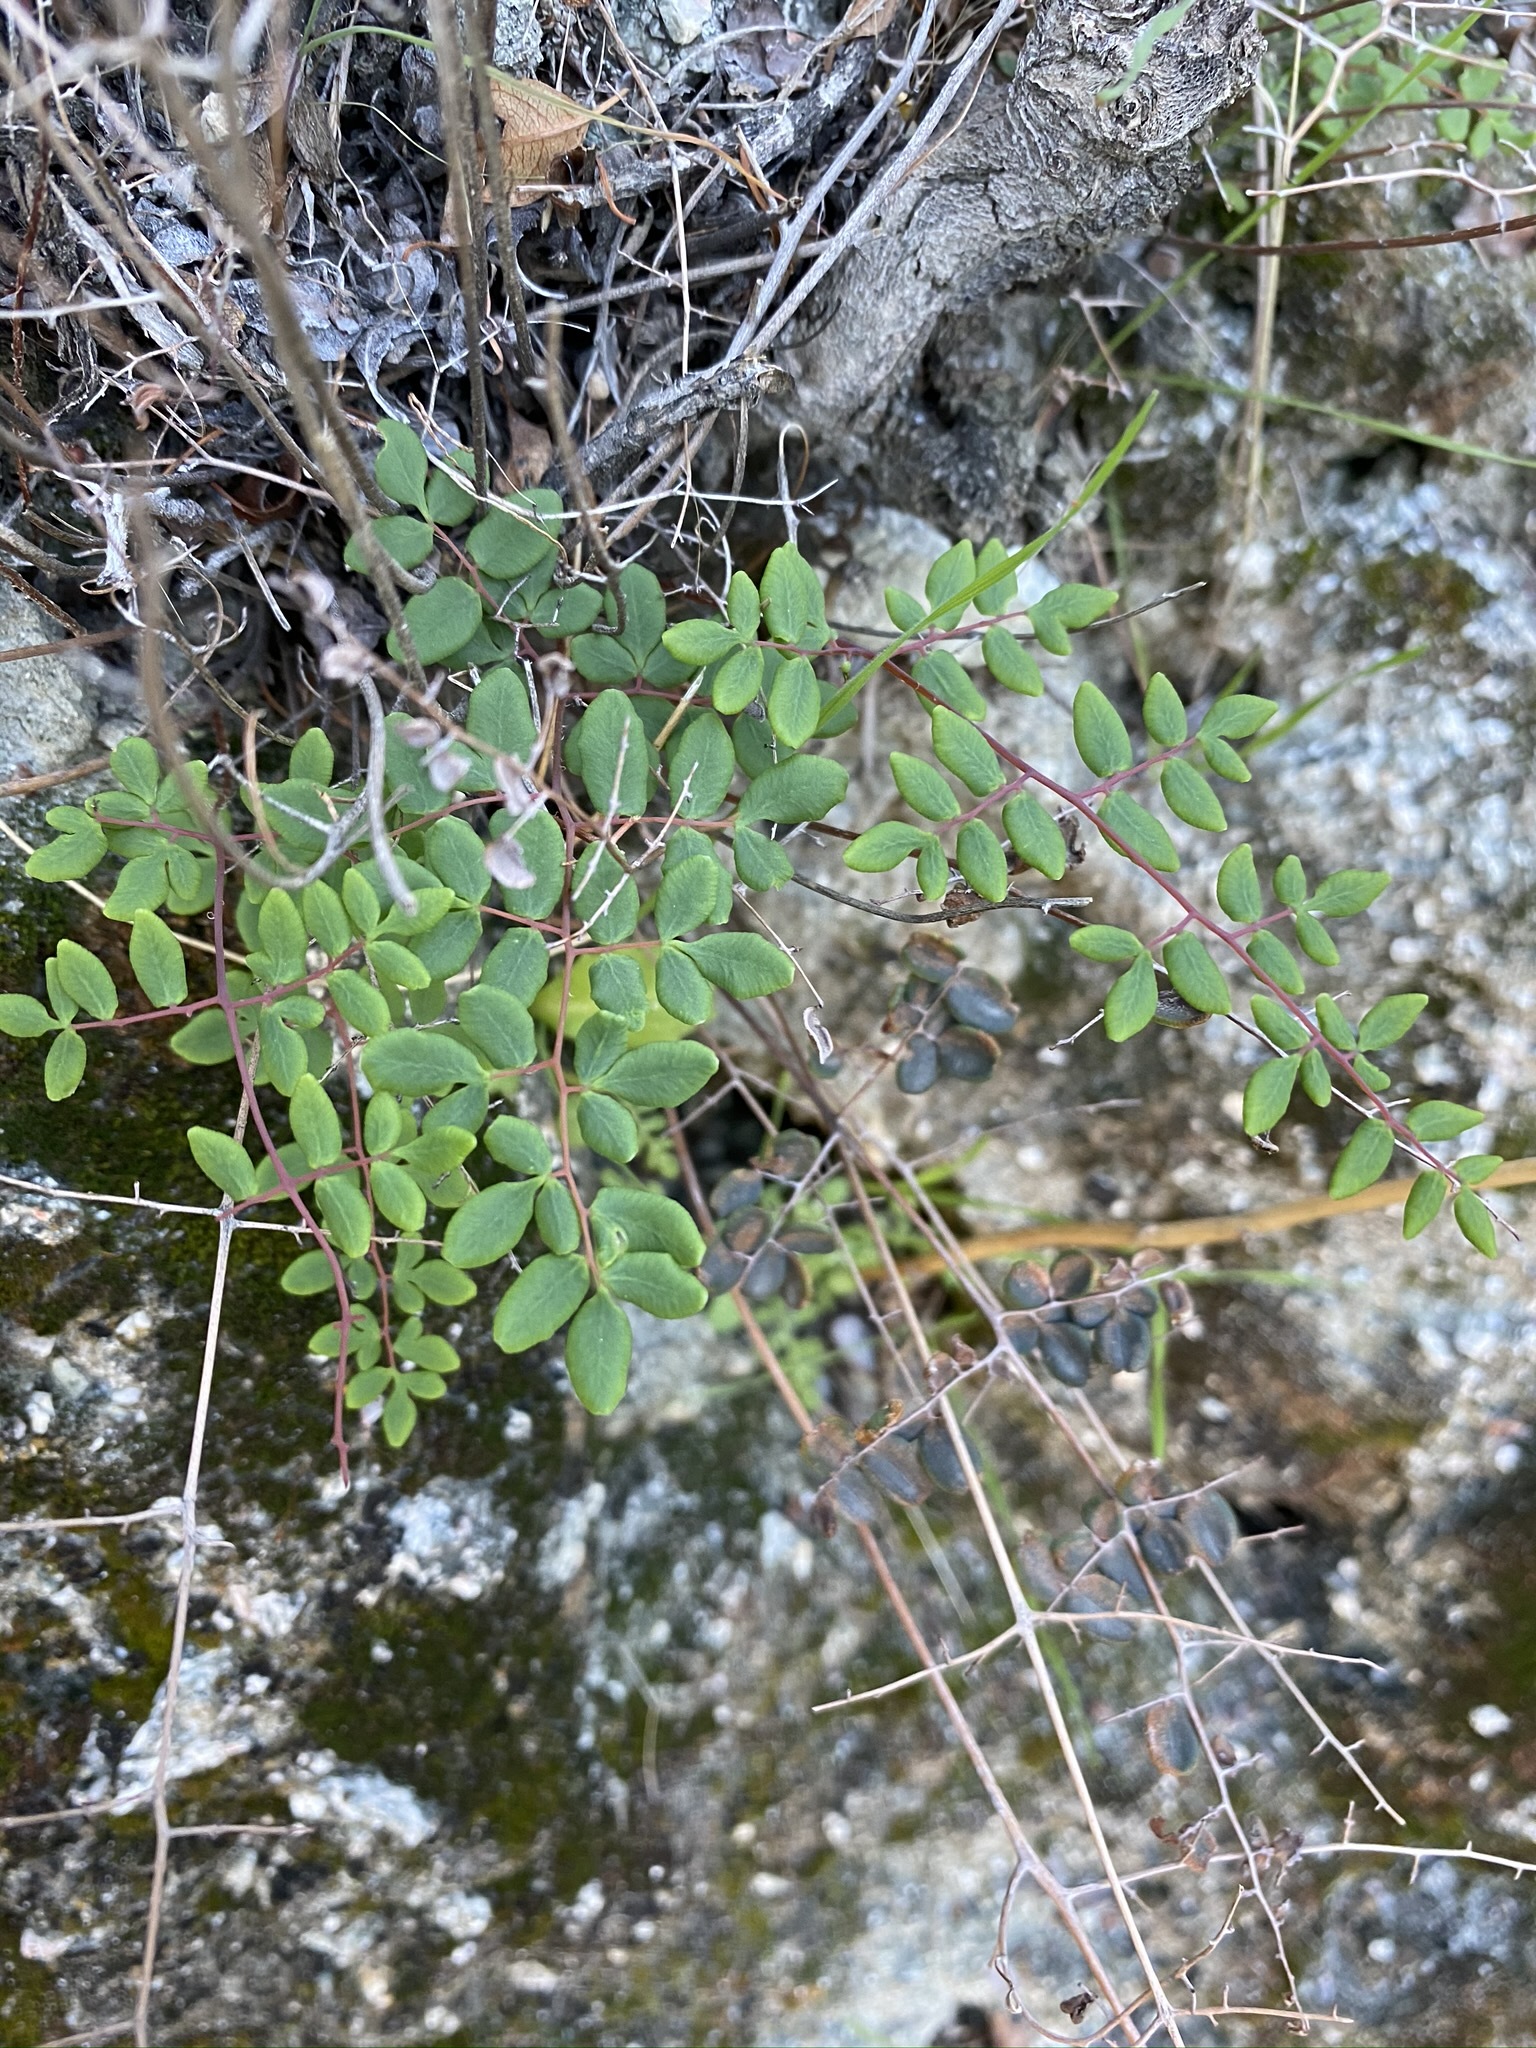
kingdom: Plantae
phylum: Tracheophyta
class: Polypodiopsida
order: Polypodiales
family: Pteridaceae
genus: Pellaea
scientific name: Pellaea andromedifolia
